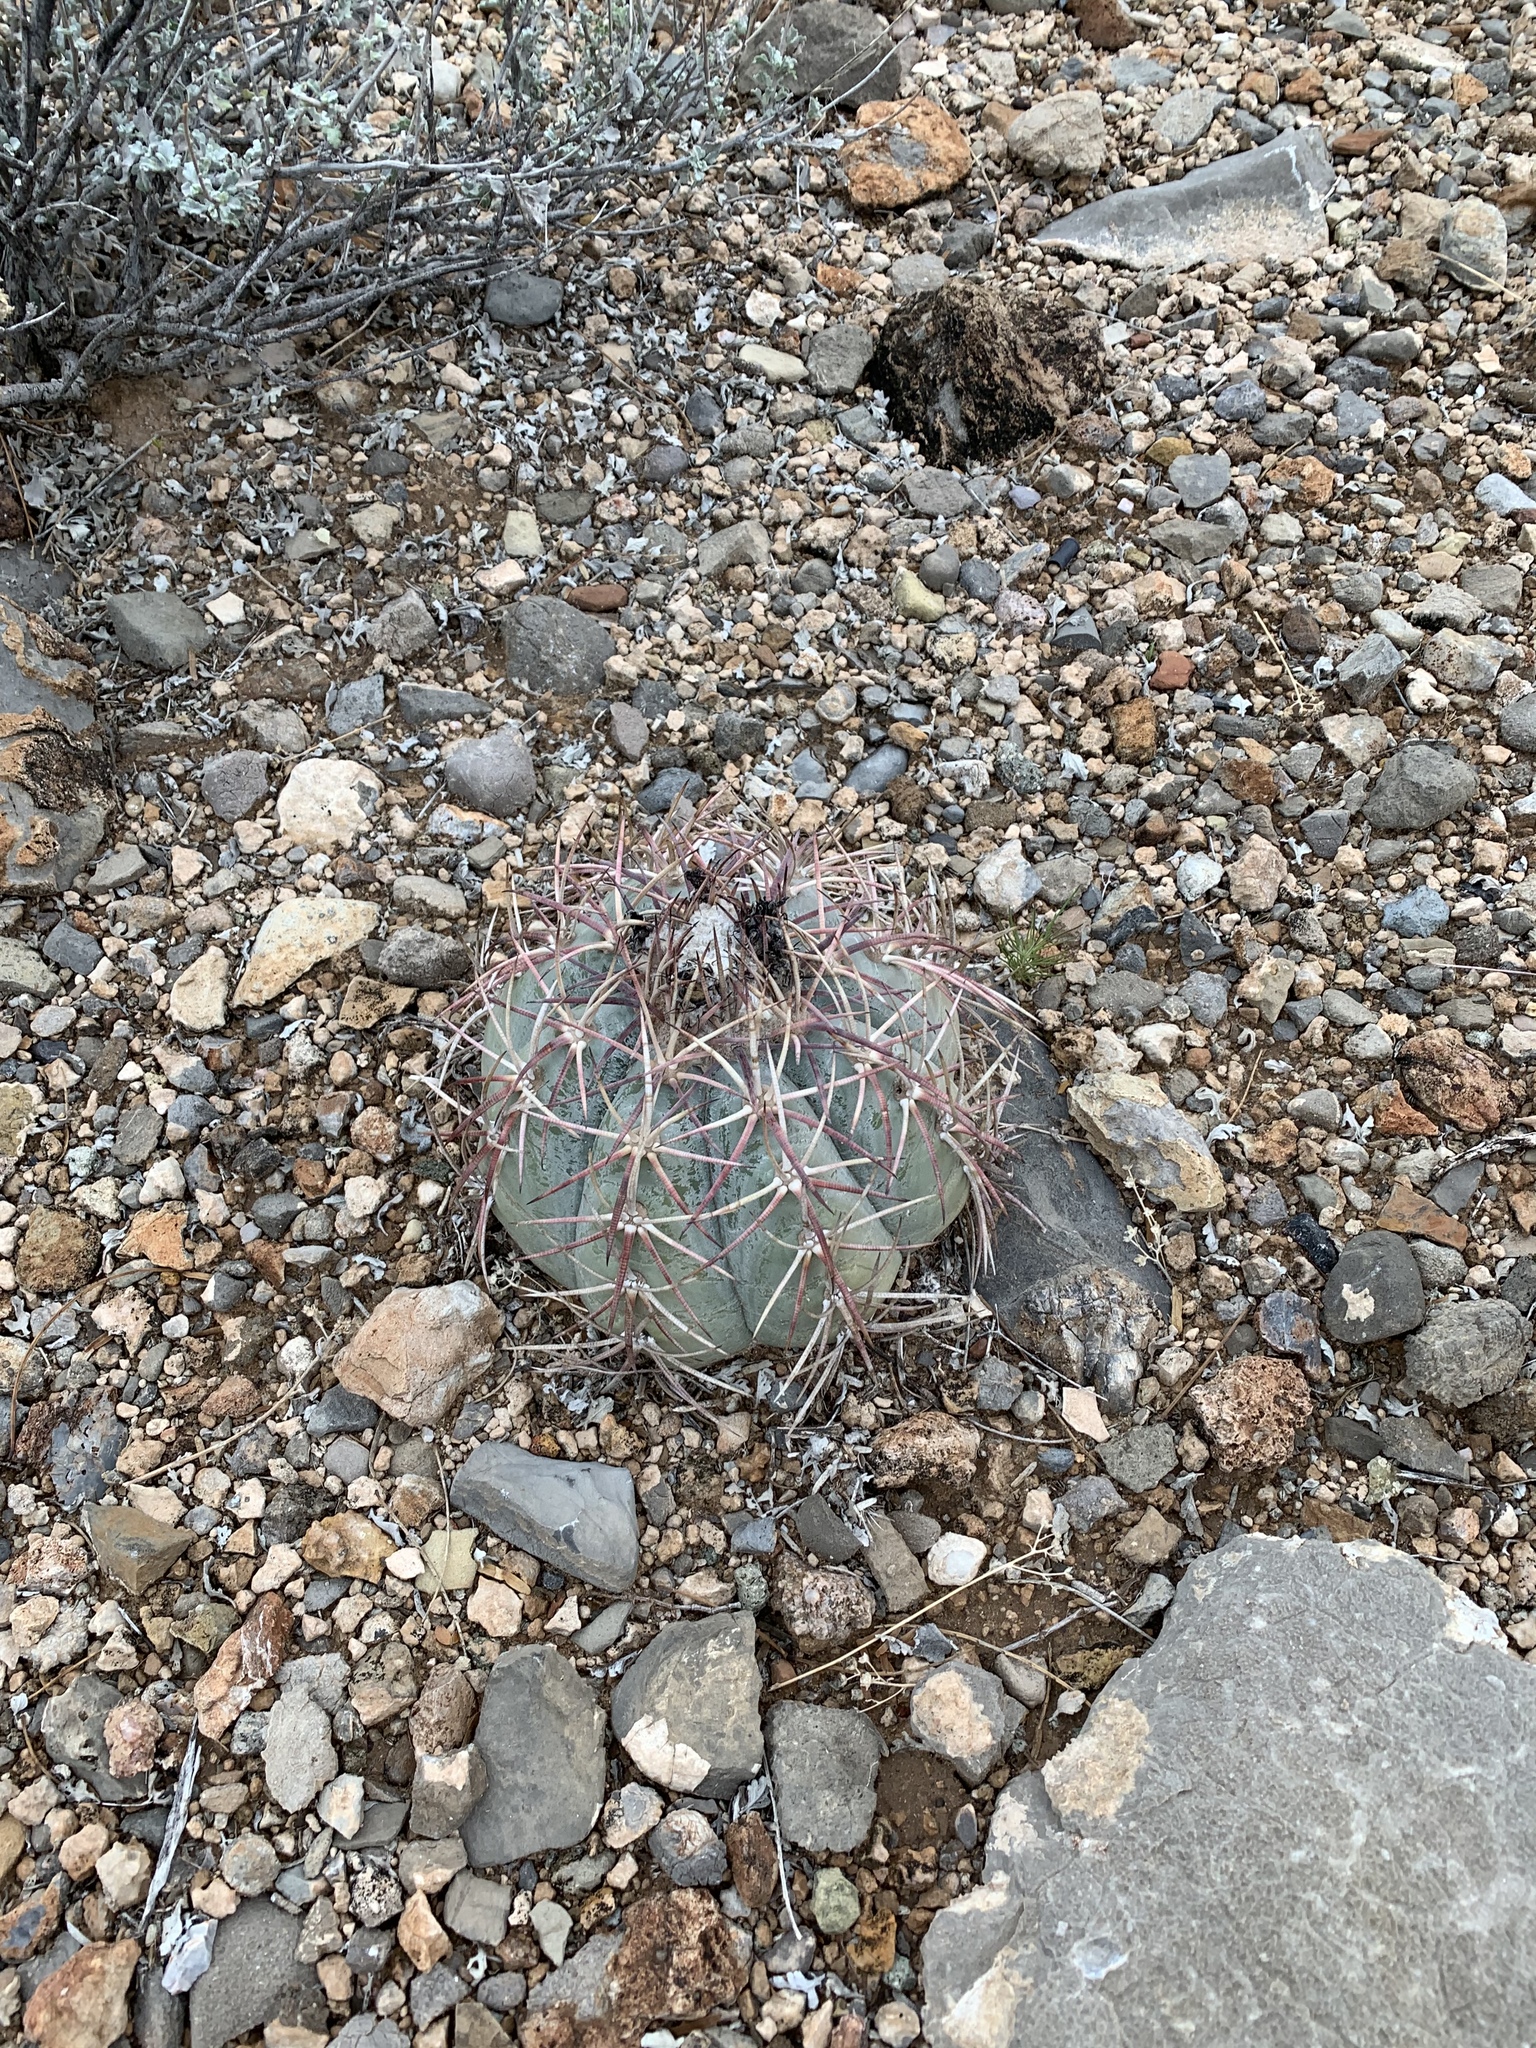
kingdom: Plantae
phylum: Tracheophyta
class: Magnoliopsida
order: Caryophyllales
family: Cactaceae
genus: Echinocactus
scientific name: Echinocactus horizonthalonius
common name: Devilshead
